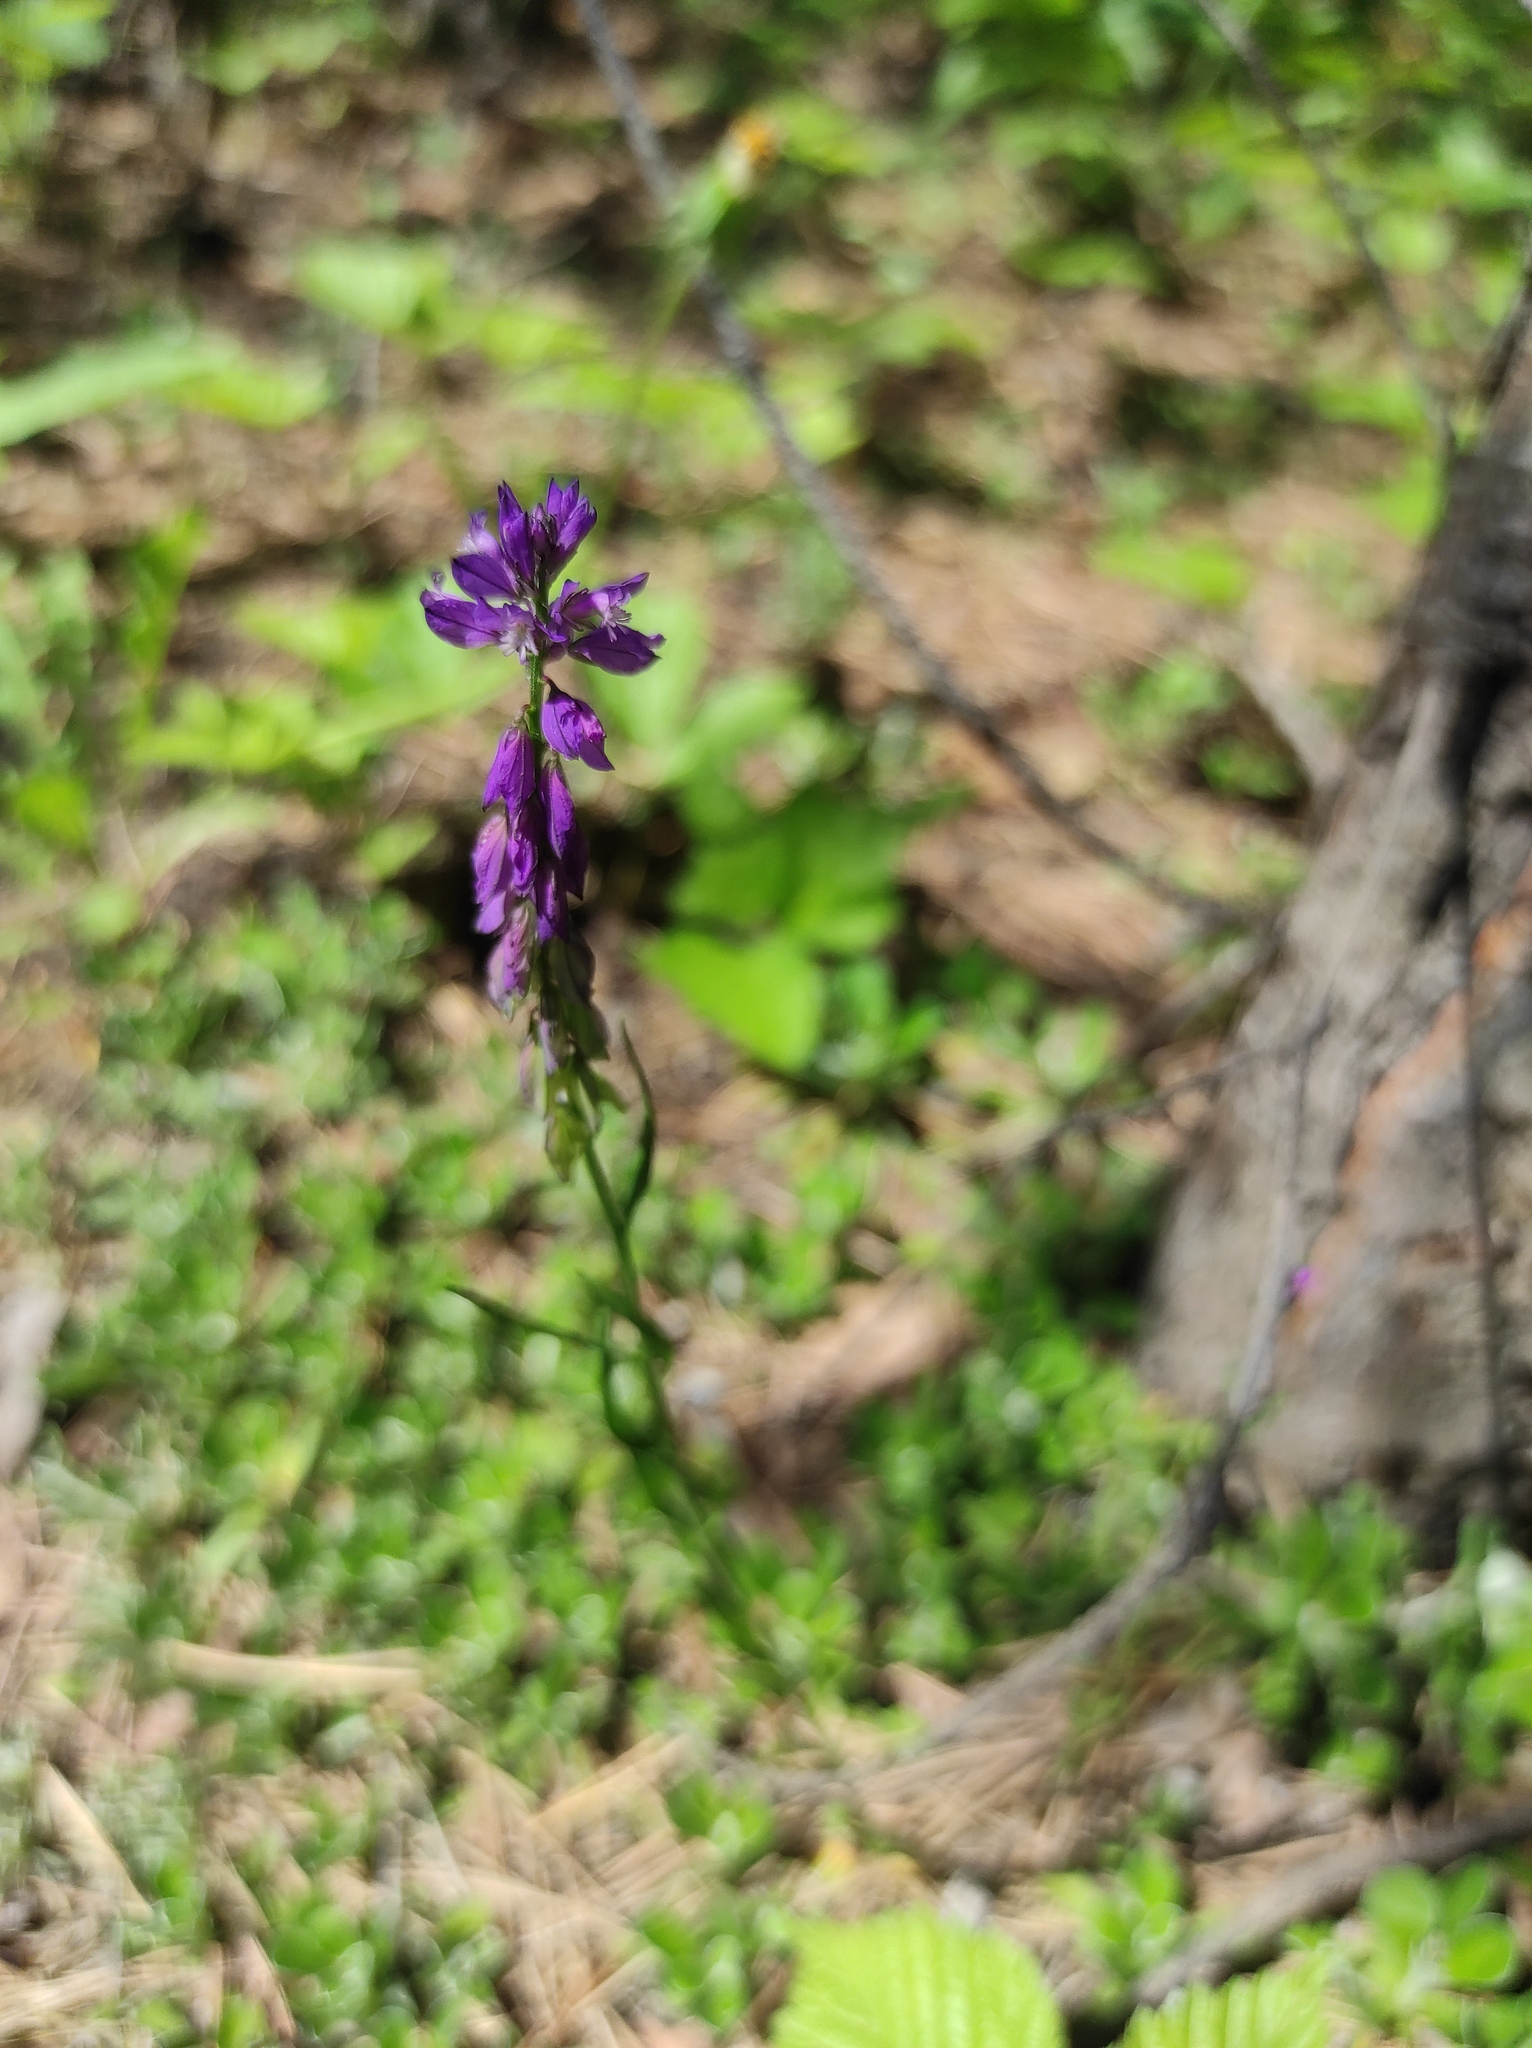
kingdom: Plantae
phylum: Tracheophyta
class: Magnoliopsida
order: Fabales
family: Polygalaceae
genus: Polygala
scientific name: Polygala comosa
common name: Tufted milkwort
